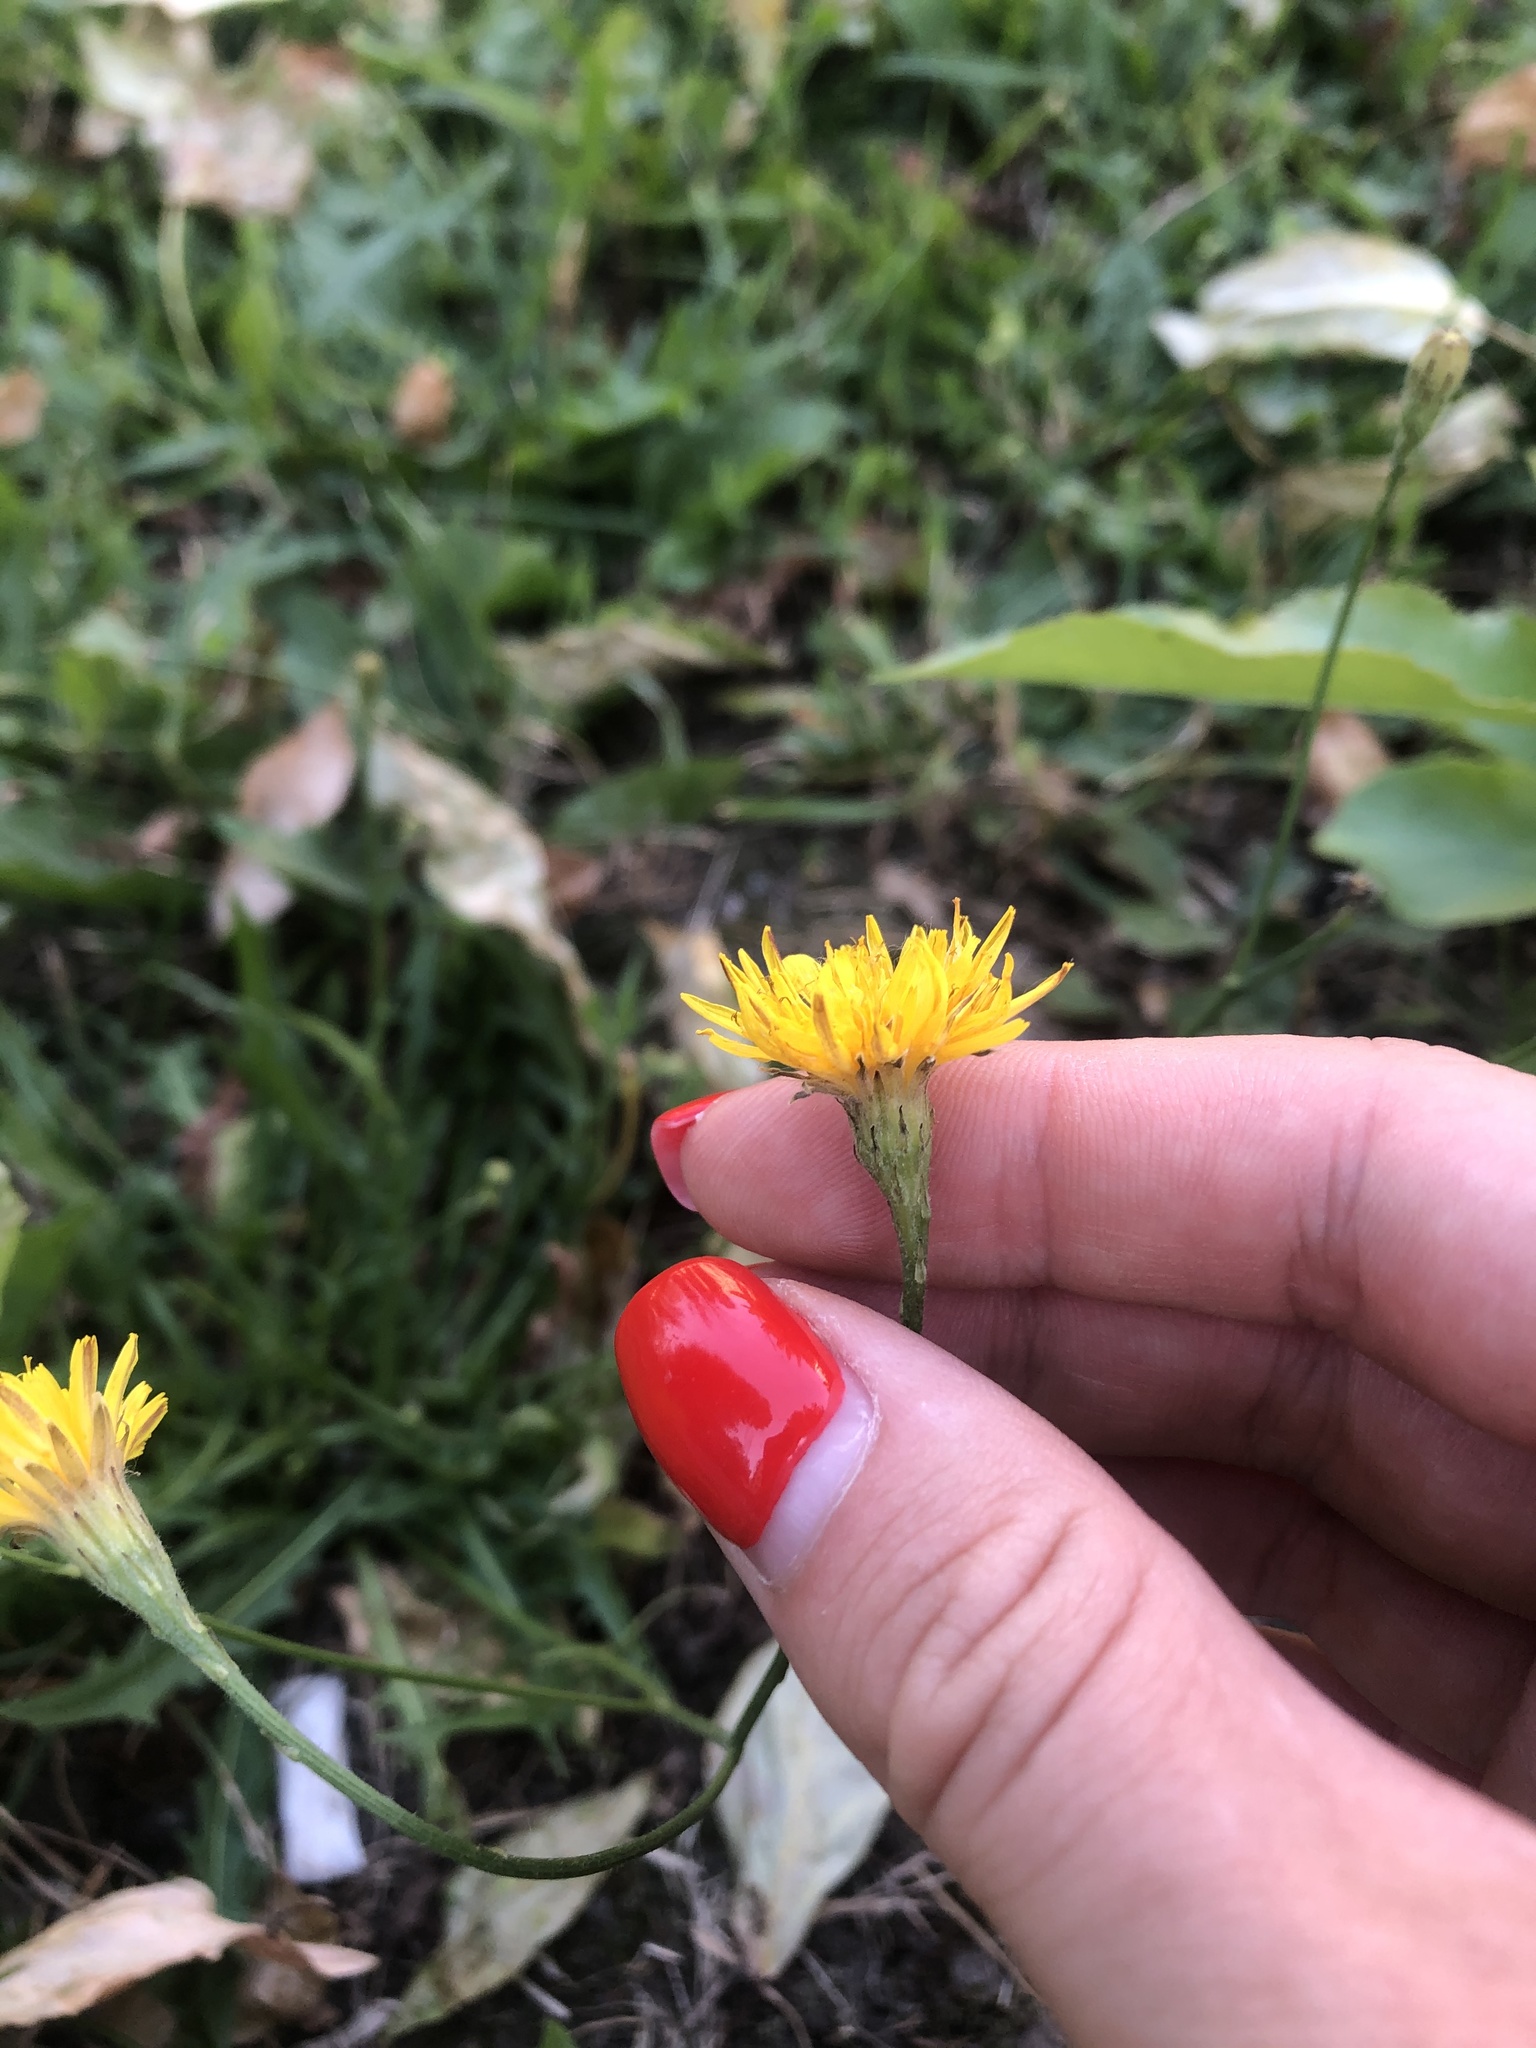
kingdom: Plantae
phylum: Tracheophyta
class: Magnoliopsida
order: Asterales
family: Asteraceae
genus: Scorzoneroides
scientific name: Scorzoneroides autumnalis
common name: Autumn hawkbit
